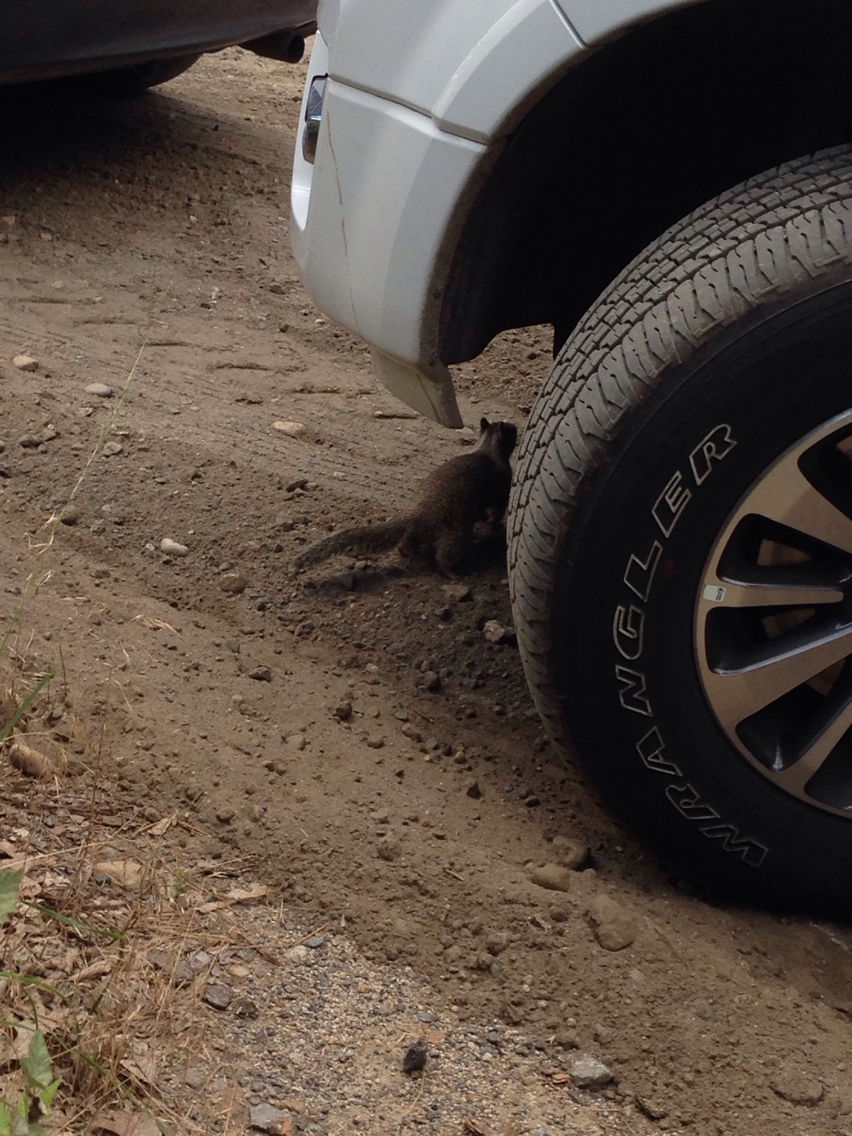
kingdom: Animalia
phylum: Chordata
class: Mammalia
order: Rodentia
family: Sciuridae
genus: Otospermophilus
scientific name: Otospermophilus beecheyi
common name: California ground squirrel
